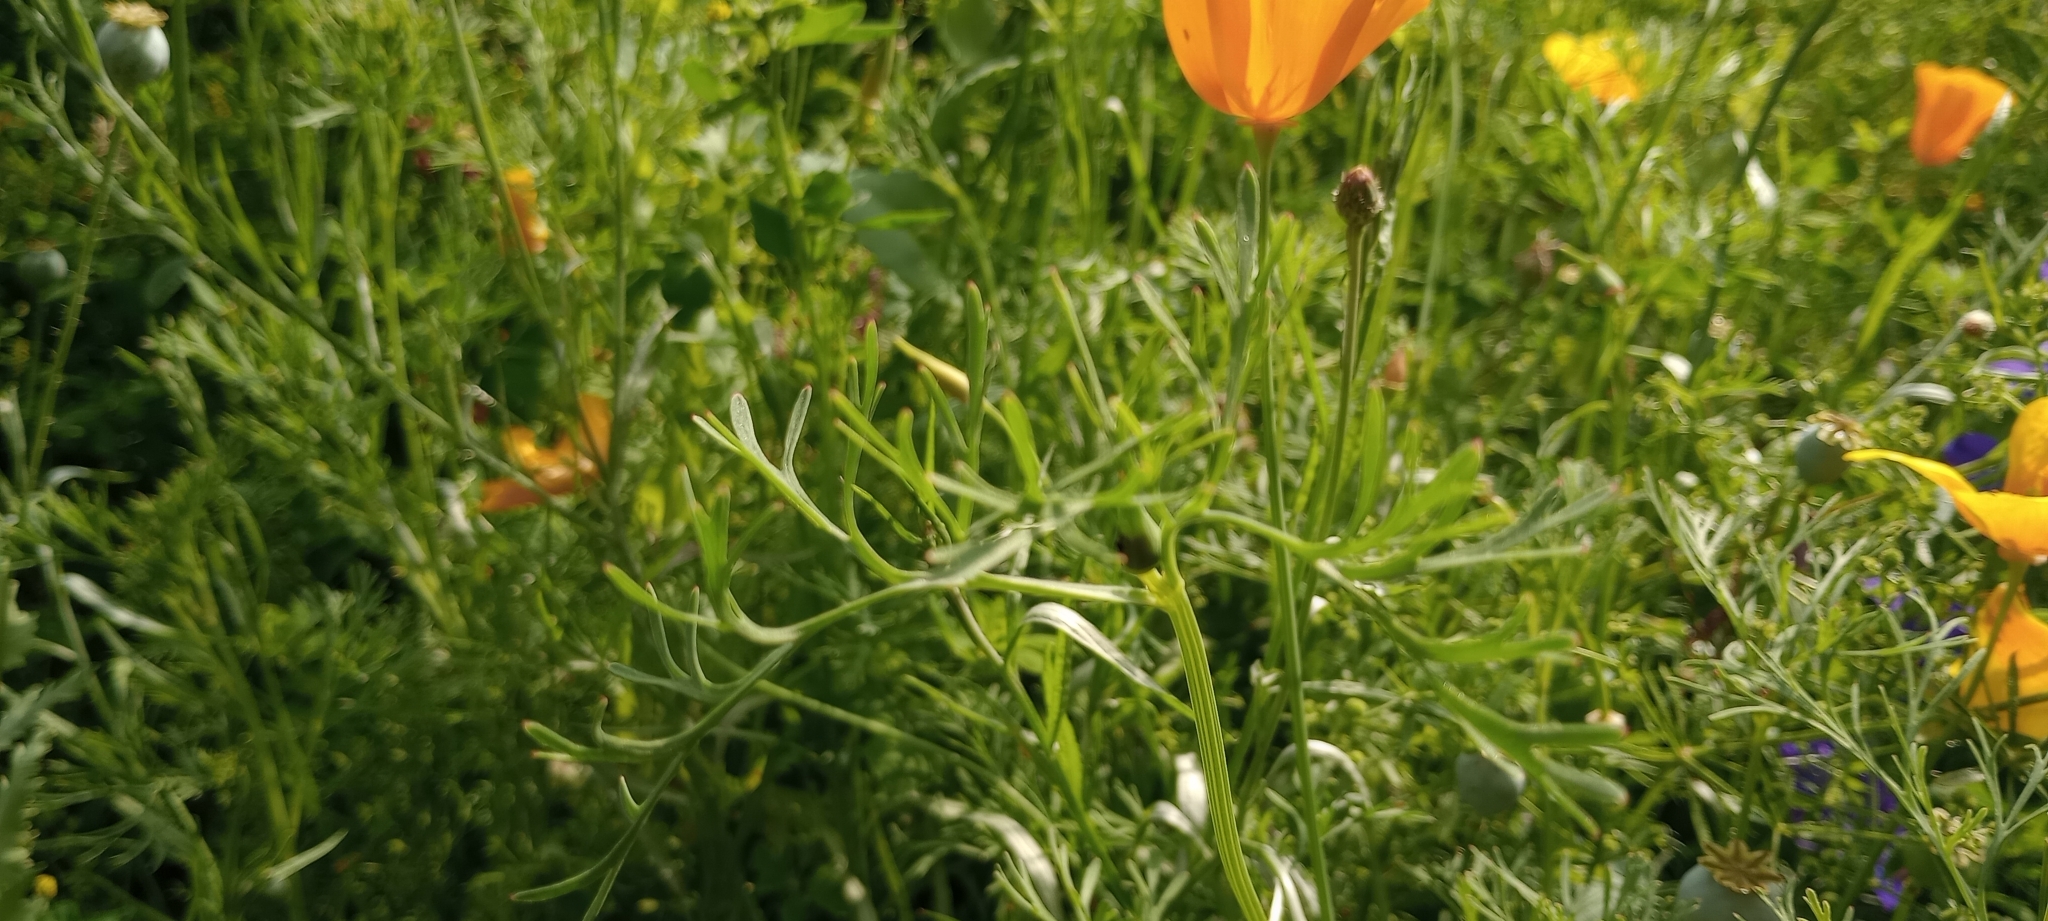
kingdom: Plantae
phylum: Tracheophyta
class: Magnoliopsida
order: Ranunculales
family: Papaveraceae
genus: Eschscholzia
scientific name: Eschscholzia californica
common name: California poppy
